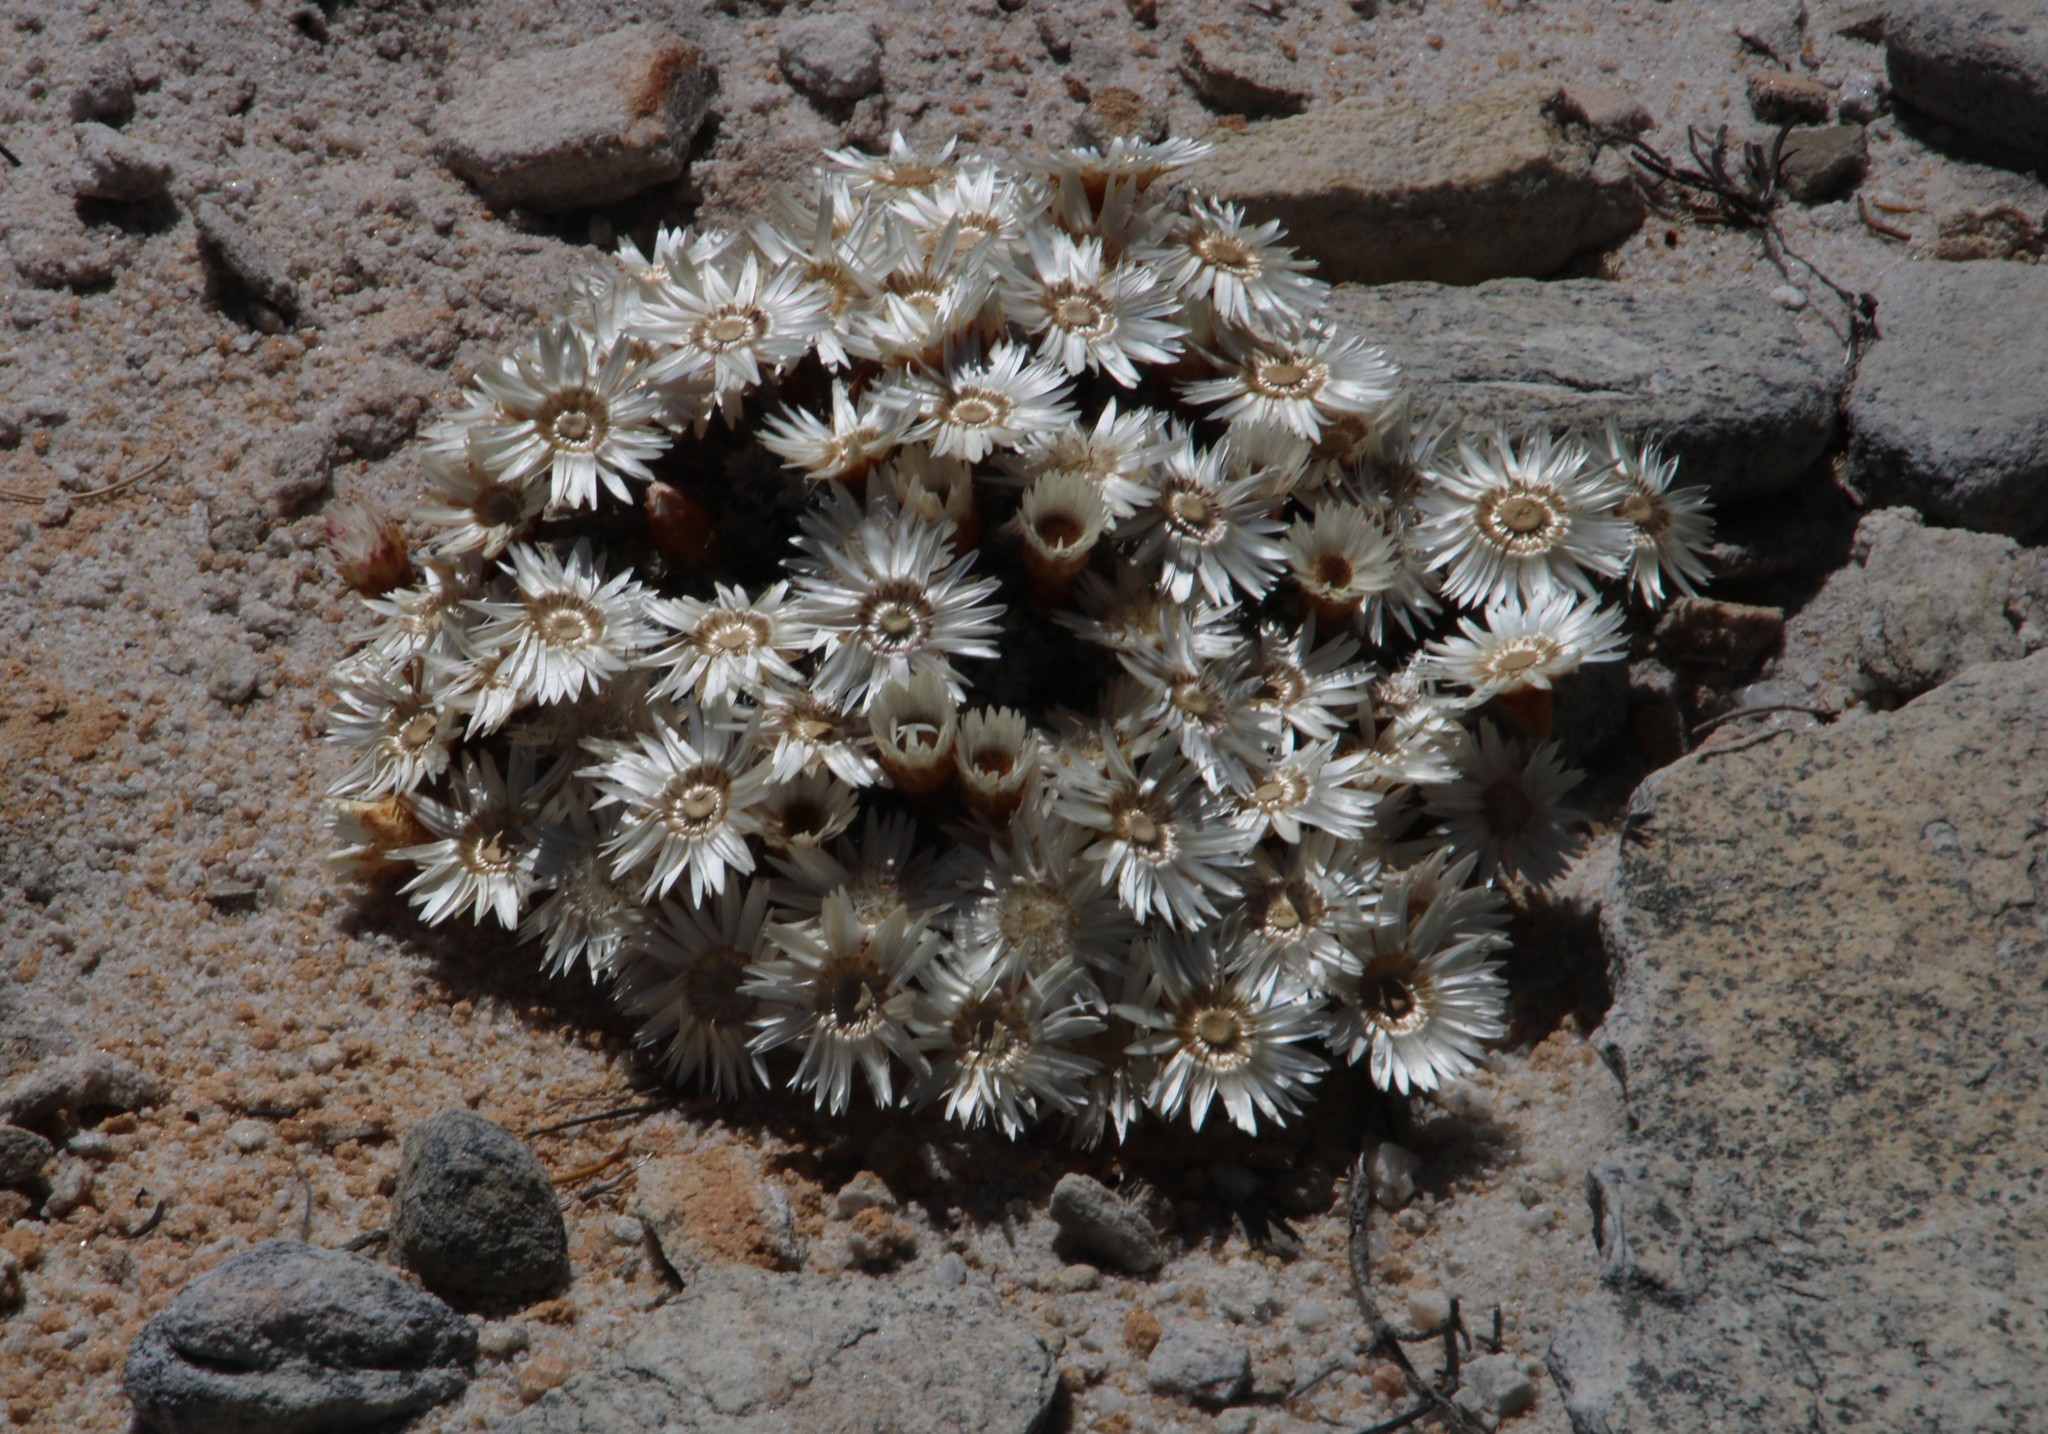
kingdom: Plantae
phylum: Tracheophyta
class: Magnoliopsida
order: Asterales
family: Asteraceae
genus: Helichrysum
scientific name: Helichrysum stoloniferum
